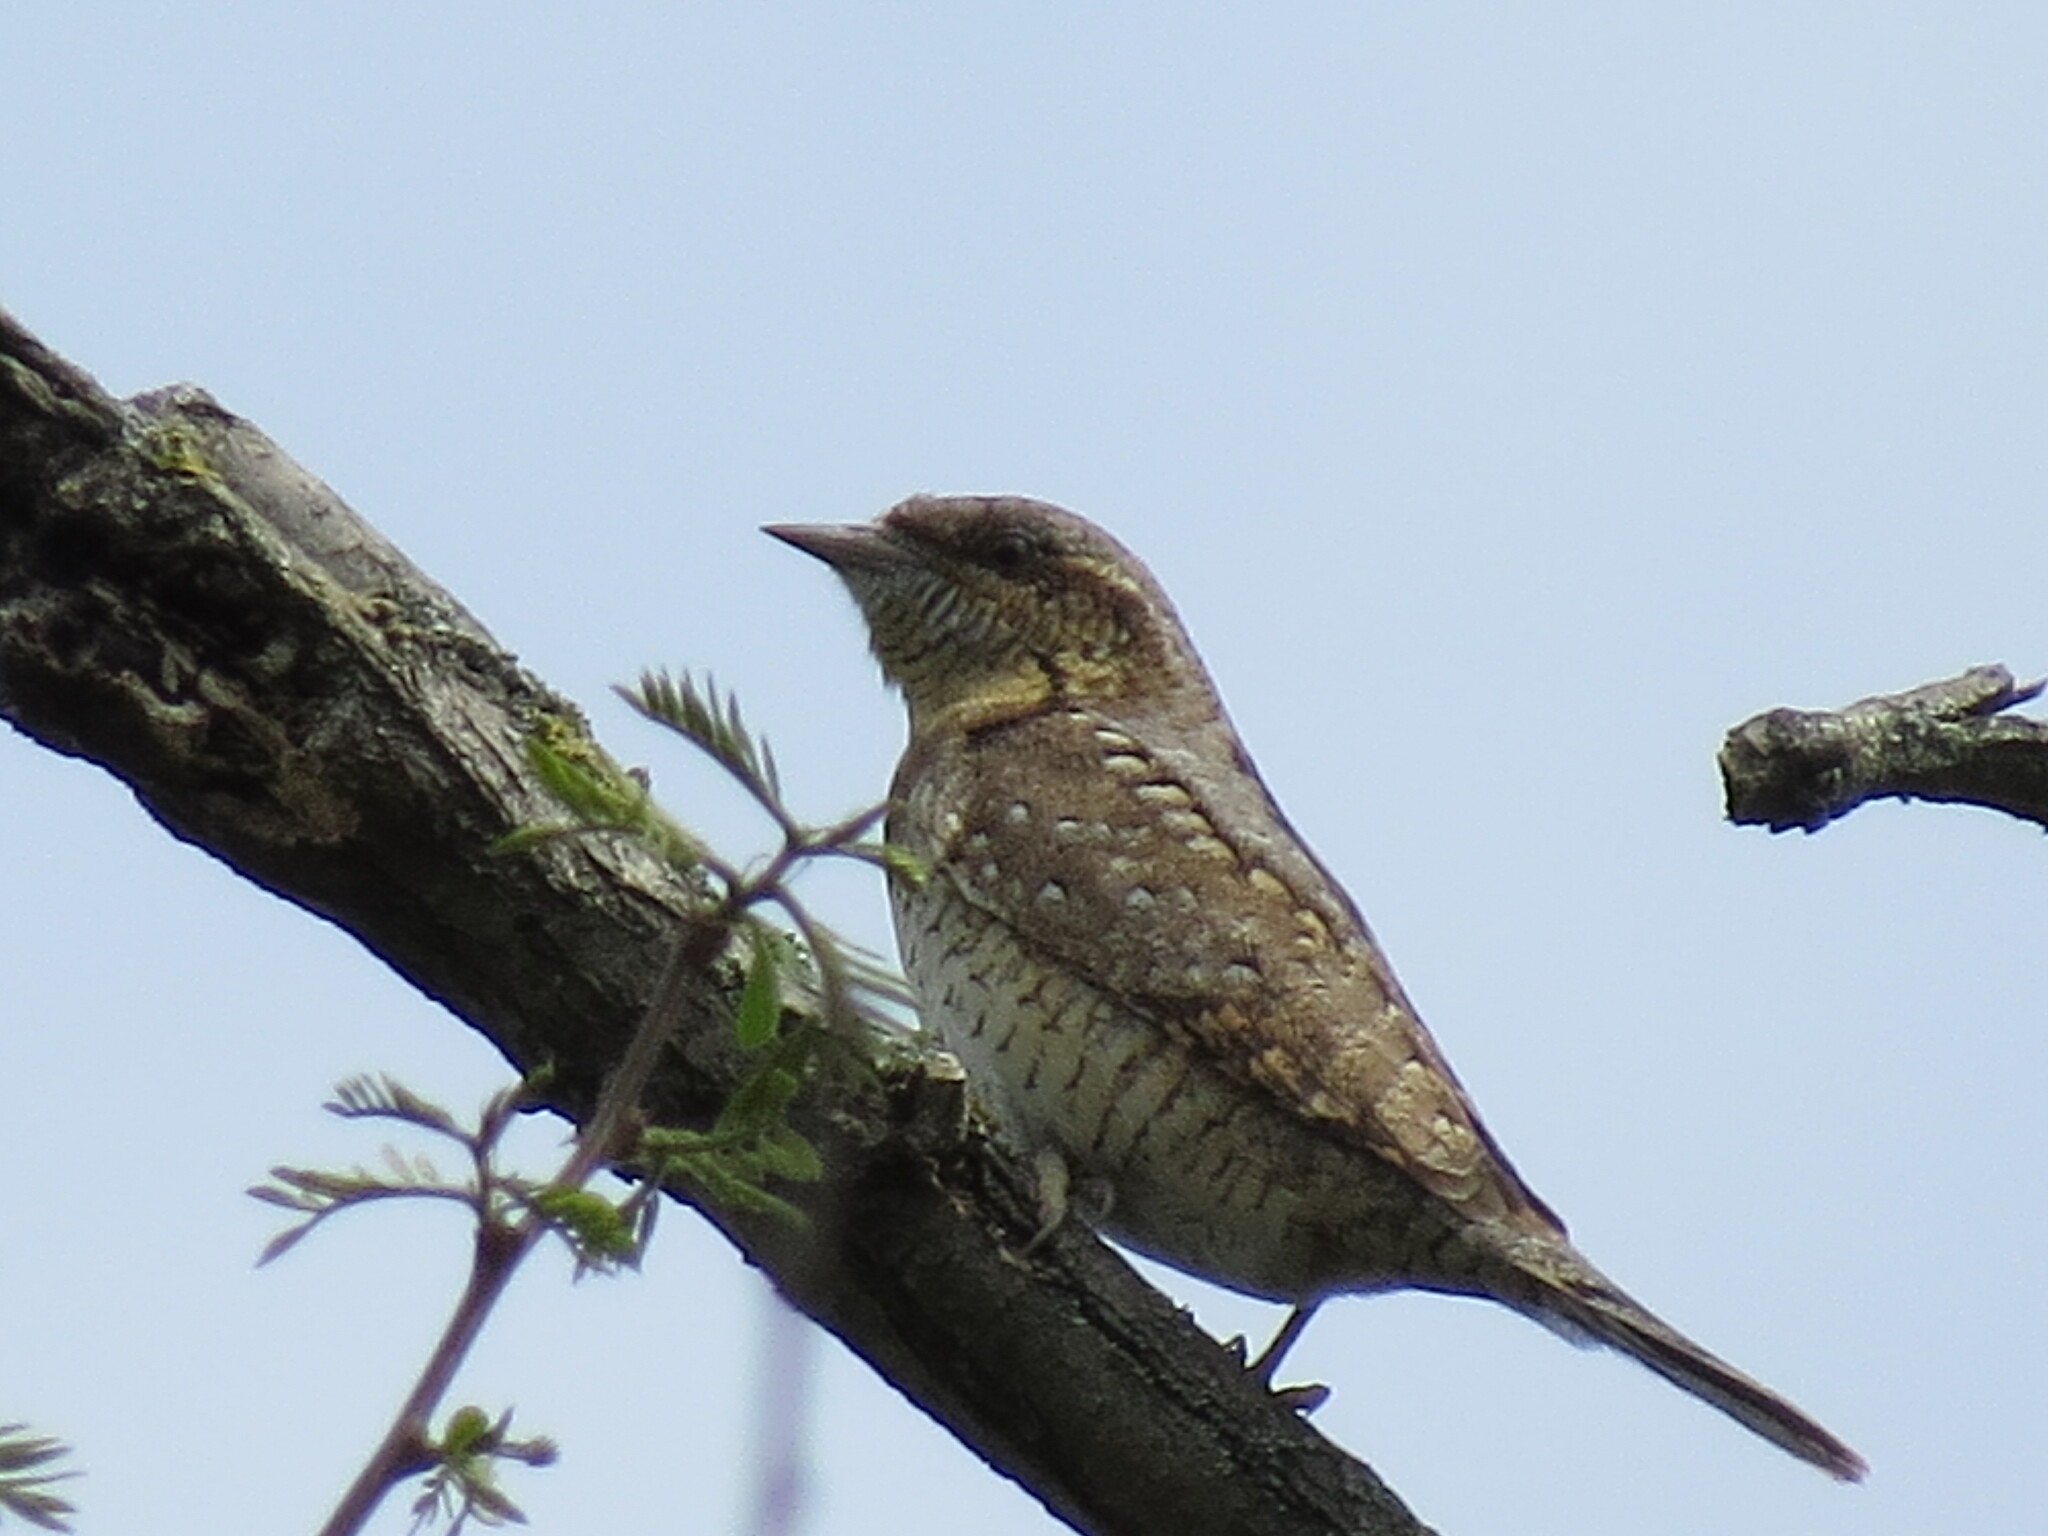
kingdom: Animalia
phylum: Chordata
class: Aves
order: Piciformes
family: Picidae
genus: Jynx
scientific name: Jynx torquilla
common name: Eurasian wryneck
